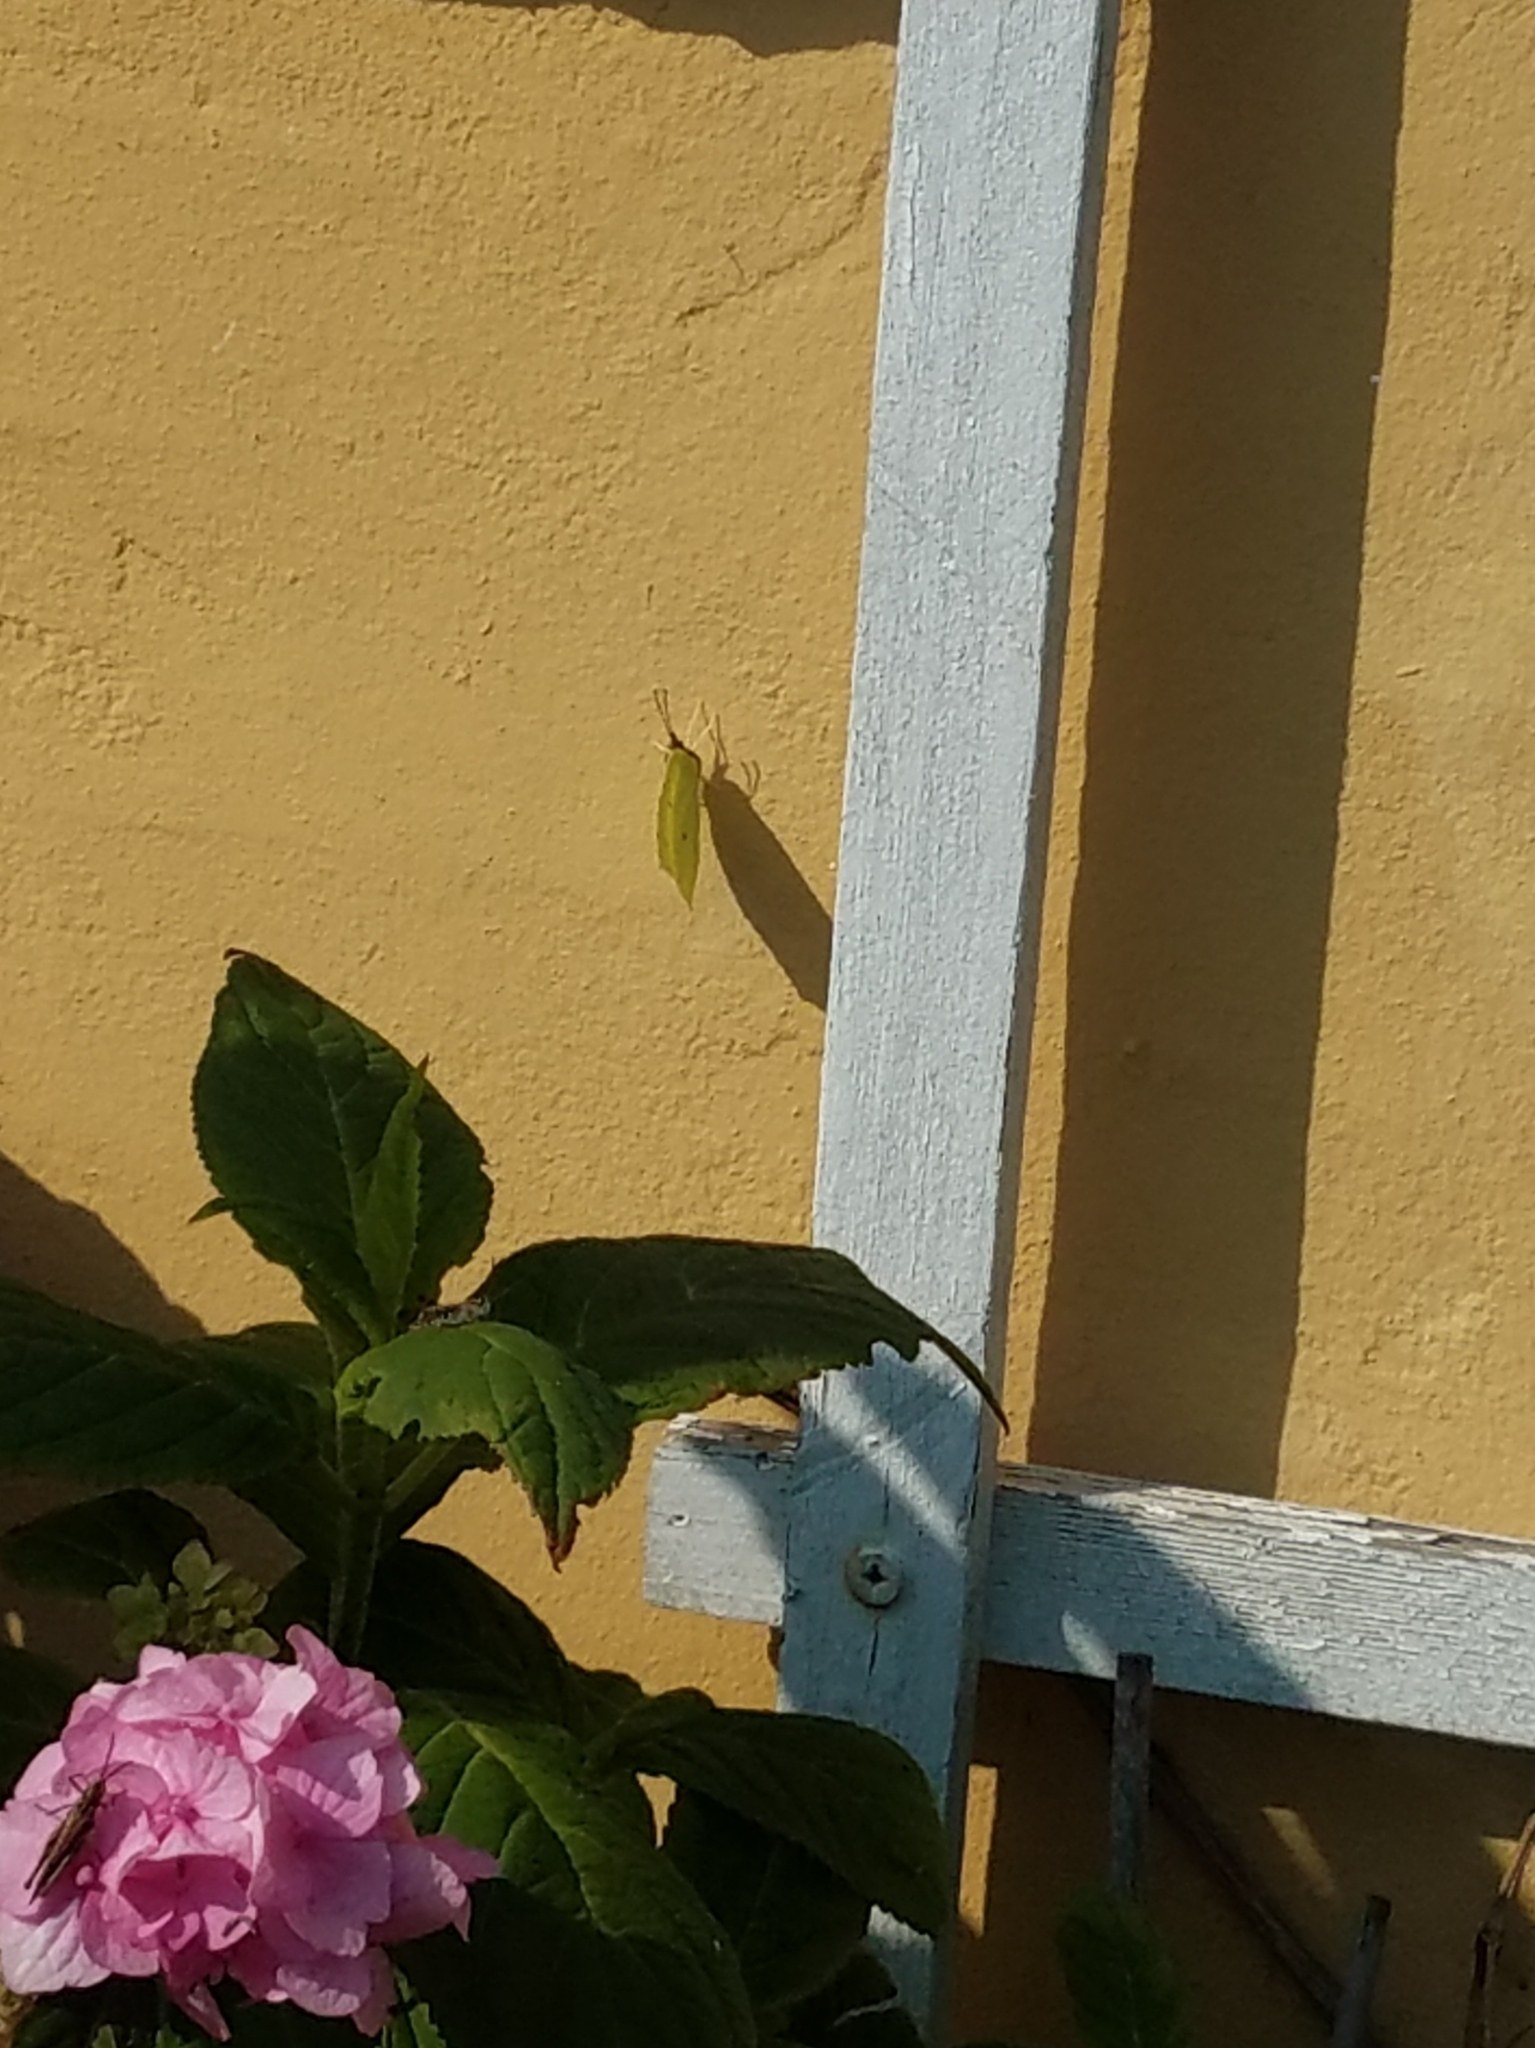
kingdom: Animalia
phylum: Arthropoda
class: Insecta
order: Lepidoptera
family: Pieridae
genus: Gonepteryx
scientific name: Gonepteryx rhamni
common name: Brimstone
